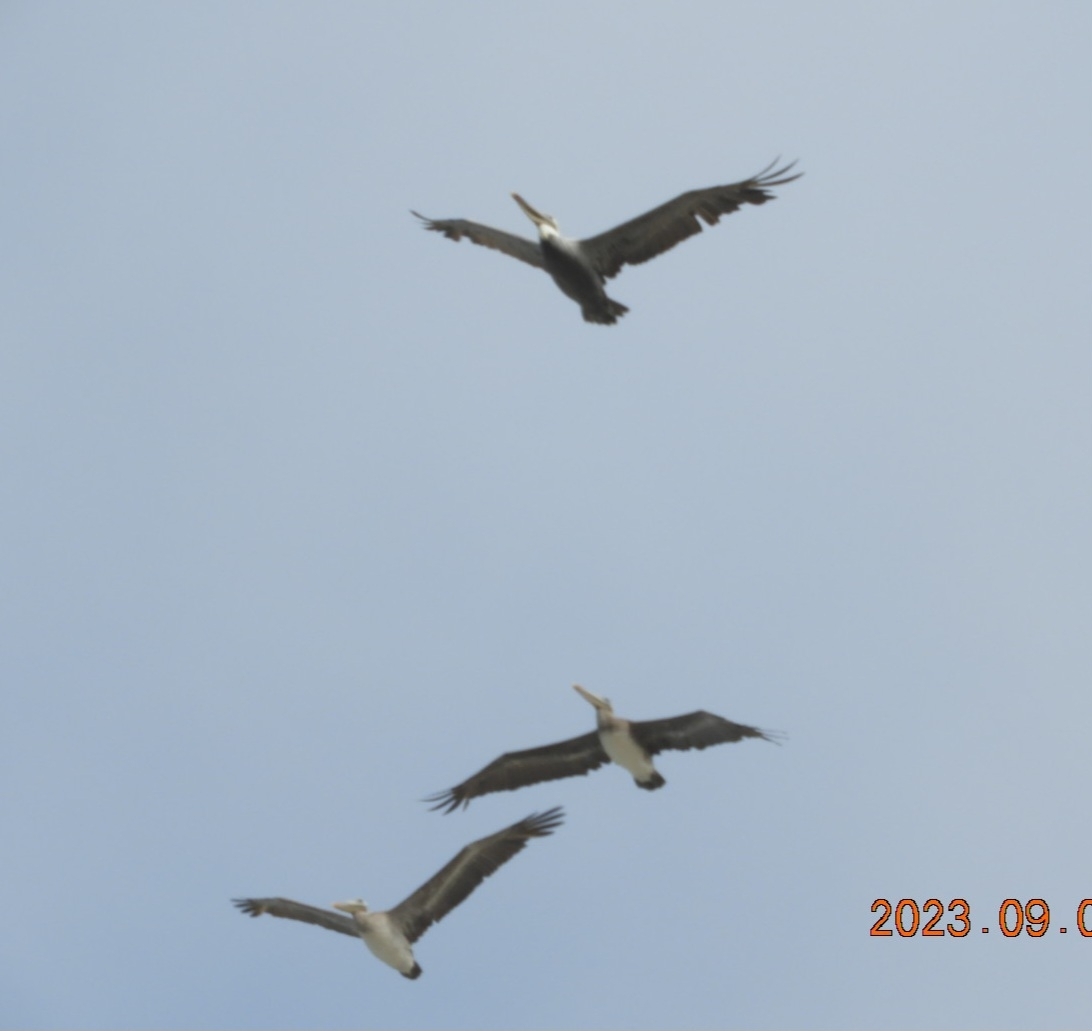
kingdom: Animalia
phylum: Chordata
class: Aves
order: Pelecaniformes
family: Pelecanidae
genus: Pelecanus
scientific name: Pelecanus occidentalis
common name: Brown pelican
